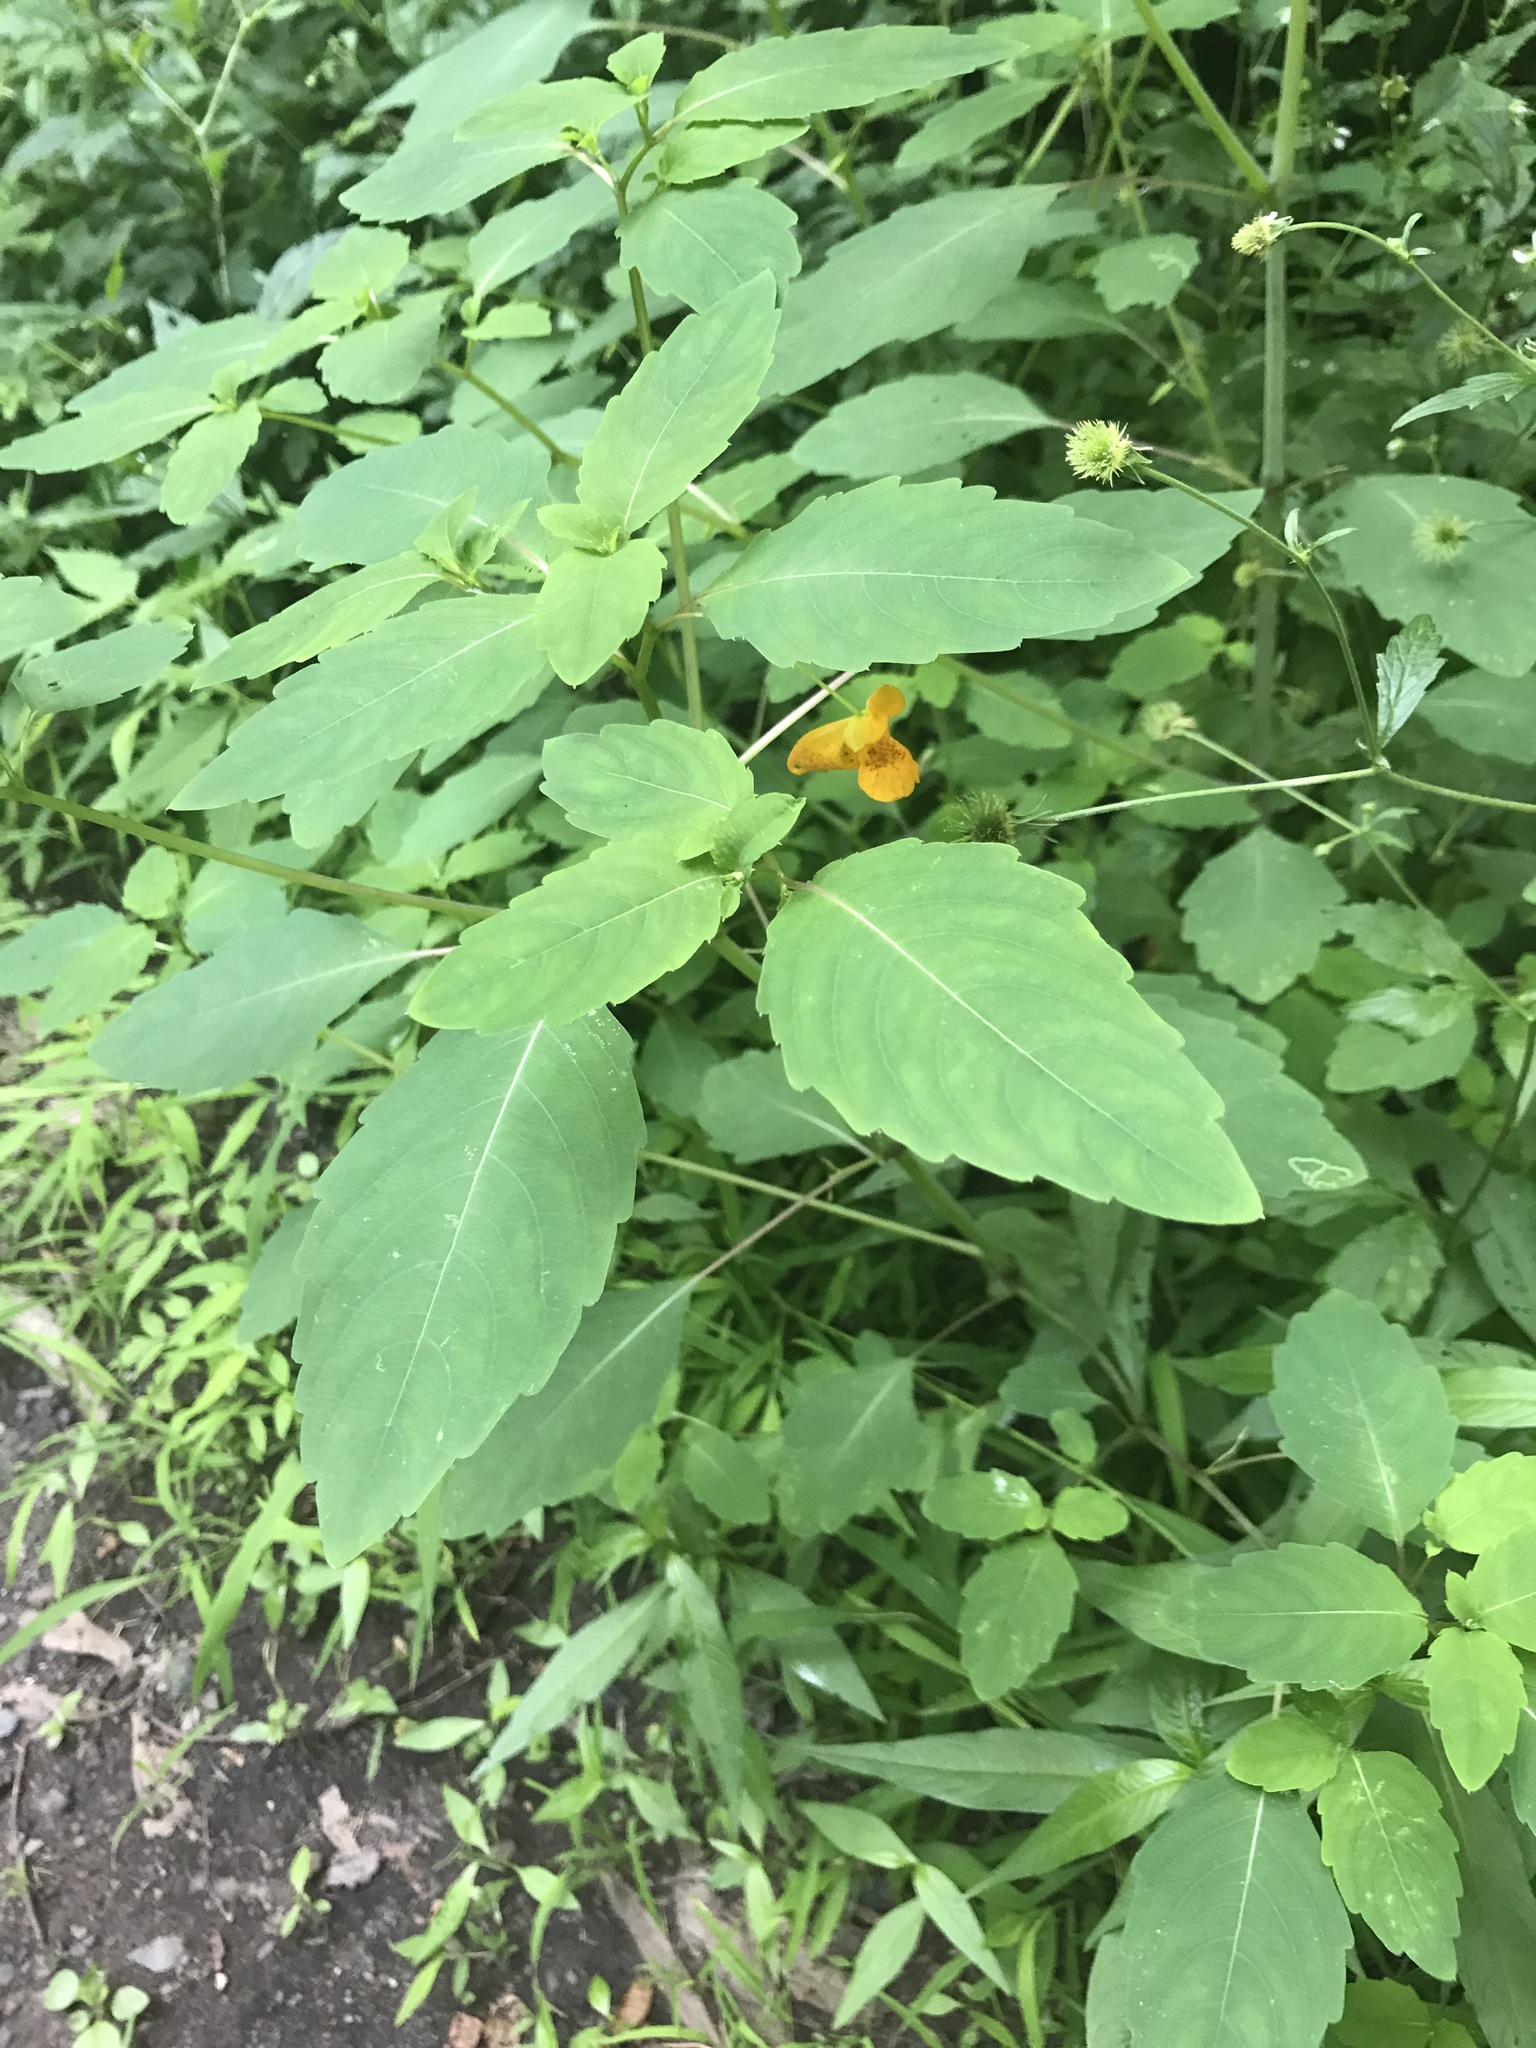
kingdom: Plantae
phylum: Tracheophyta
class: Magnoliopsida
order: Ericales
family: Balsaminaceae
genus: Impatiens
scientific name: Impatiens capensis
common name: Orange balsam
